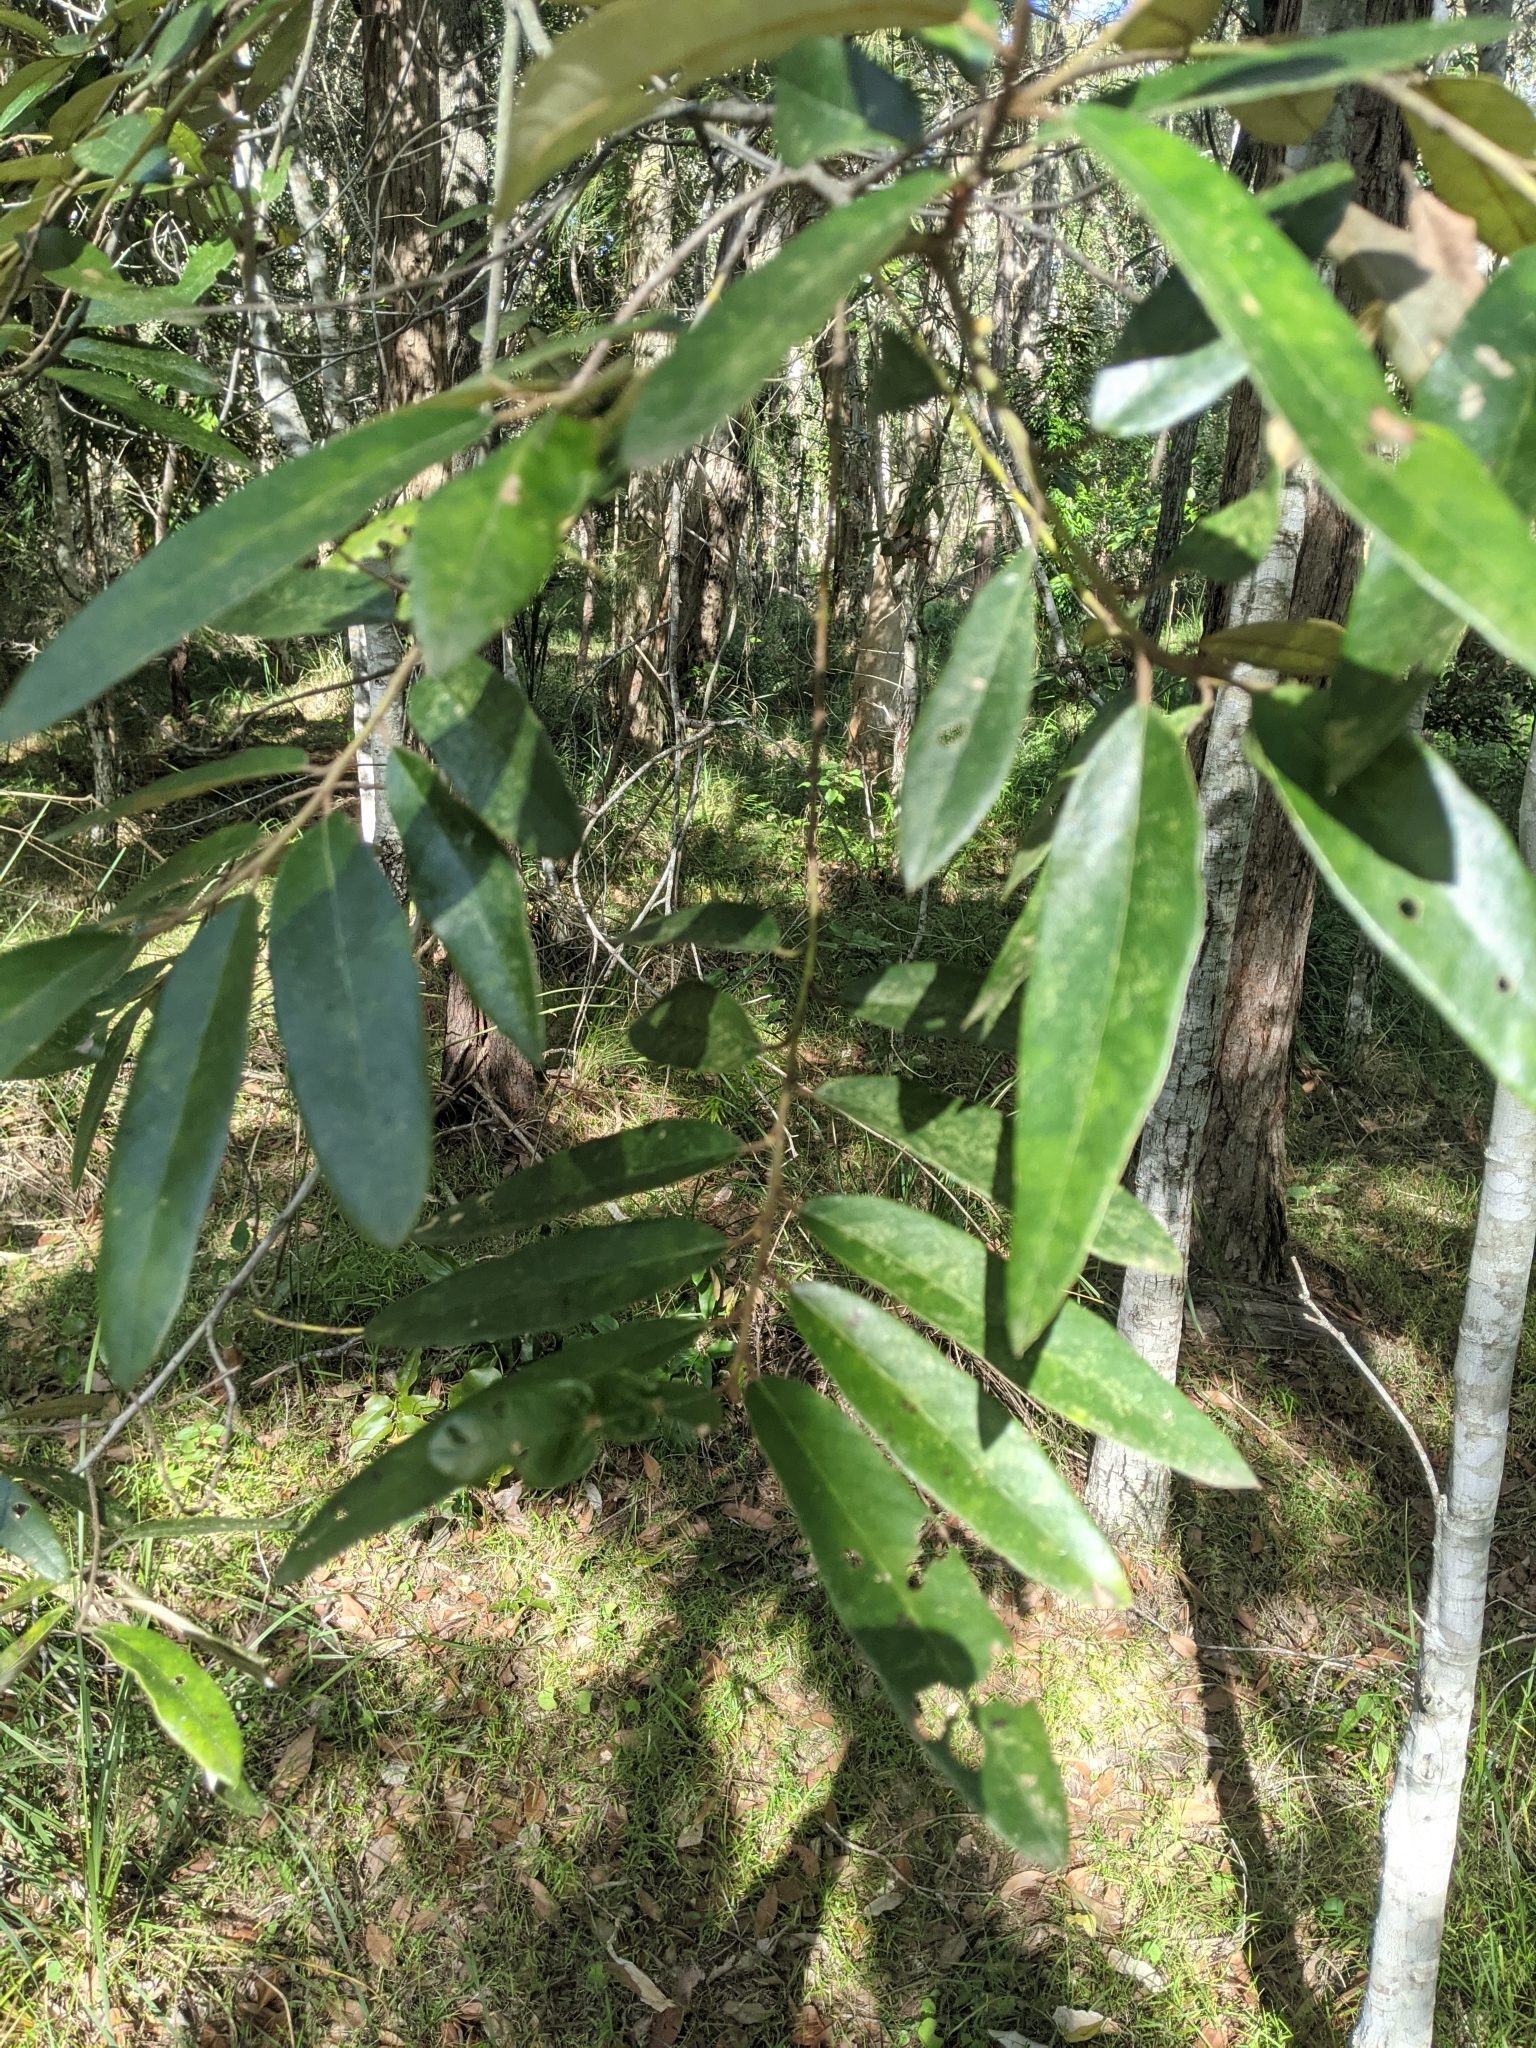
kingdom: Plantae
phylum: Tracheophyta
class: Magnoliopsida
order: Rosales
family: Rhamnaceae
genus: Alphitonia
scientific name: Alphitonia excelsa
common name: Red ash
